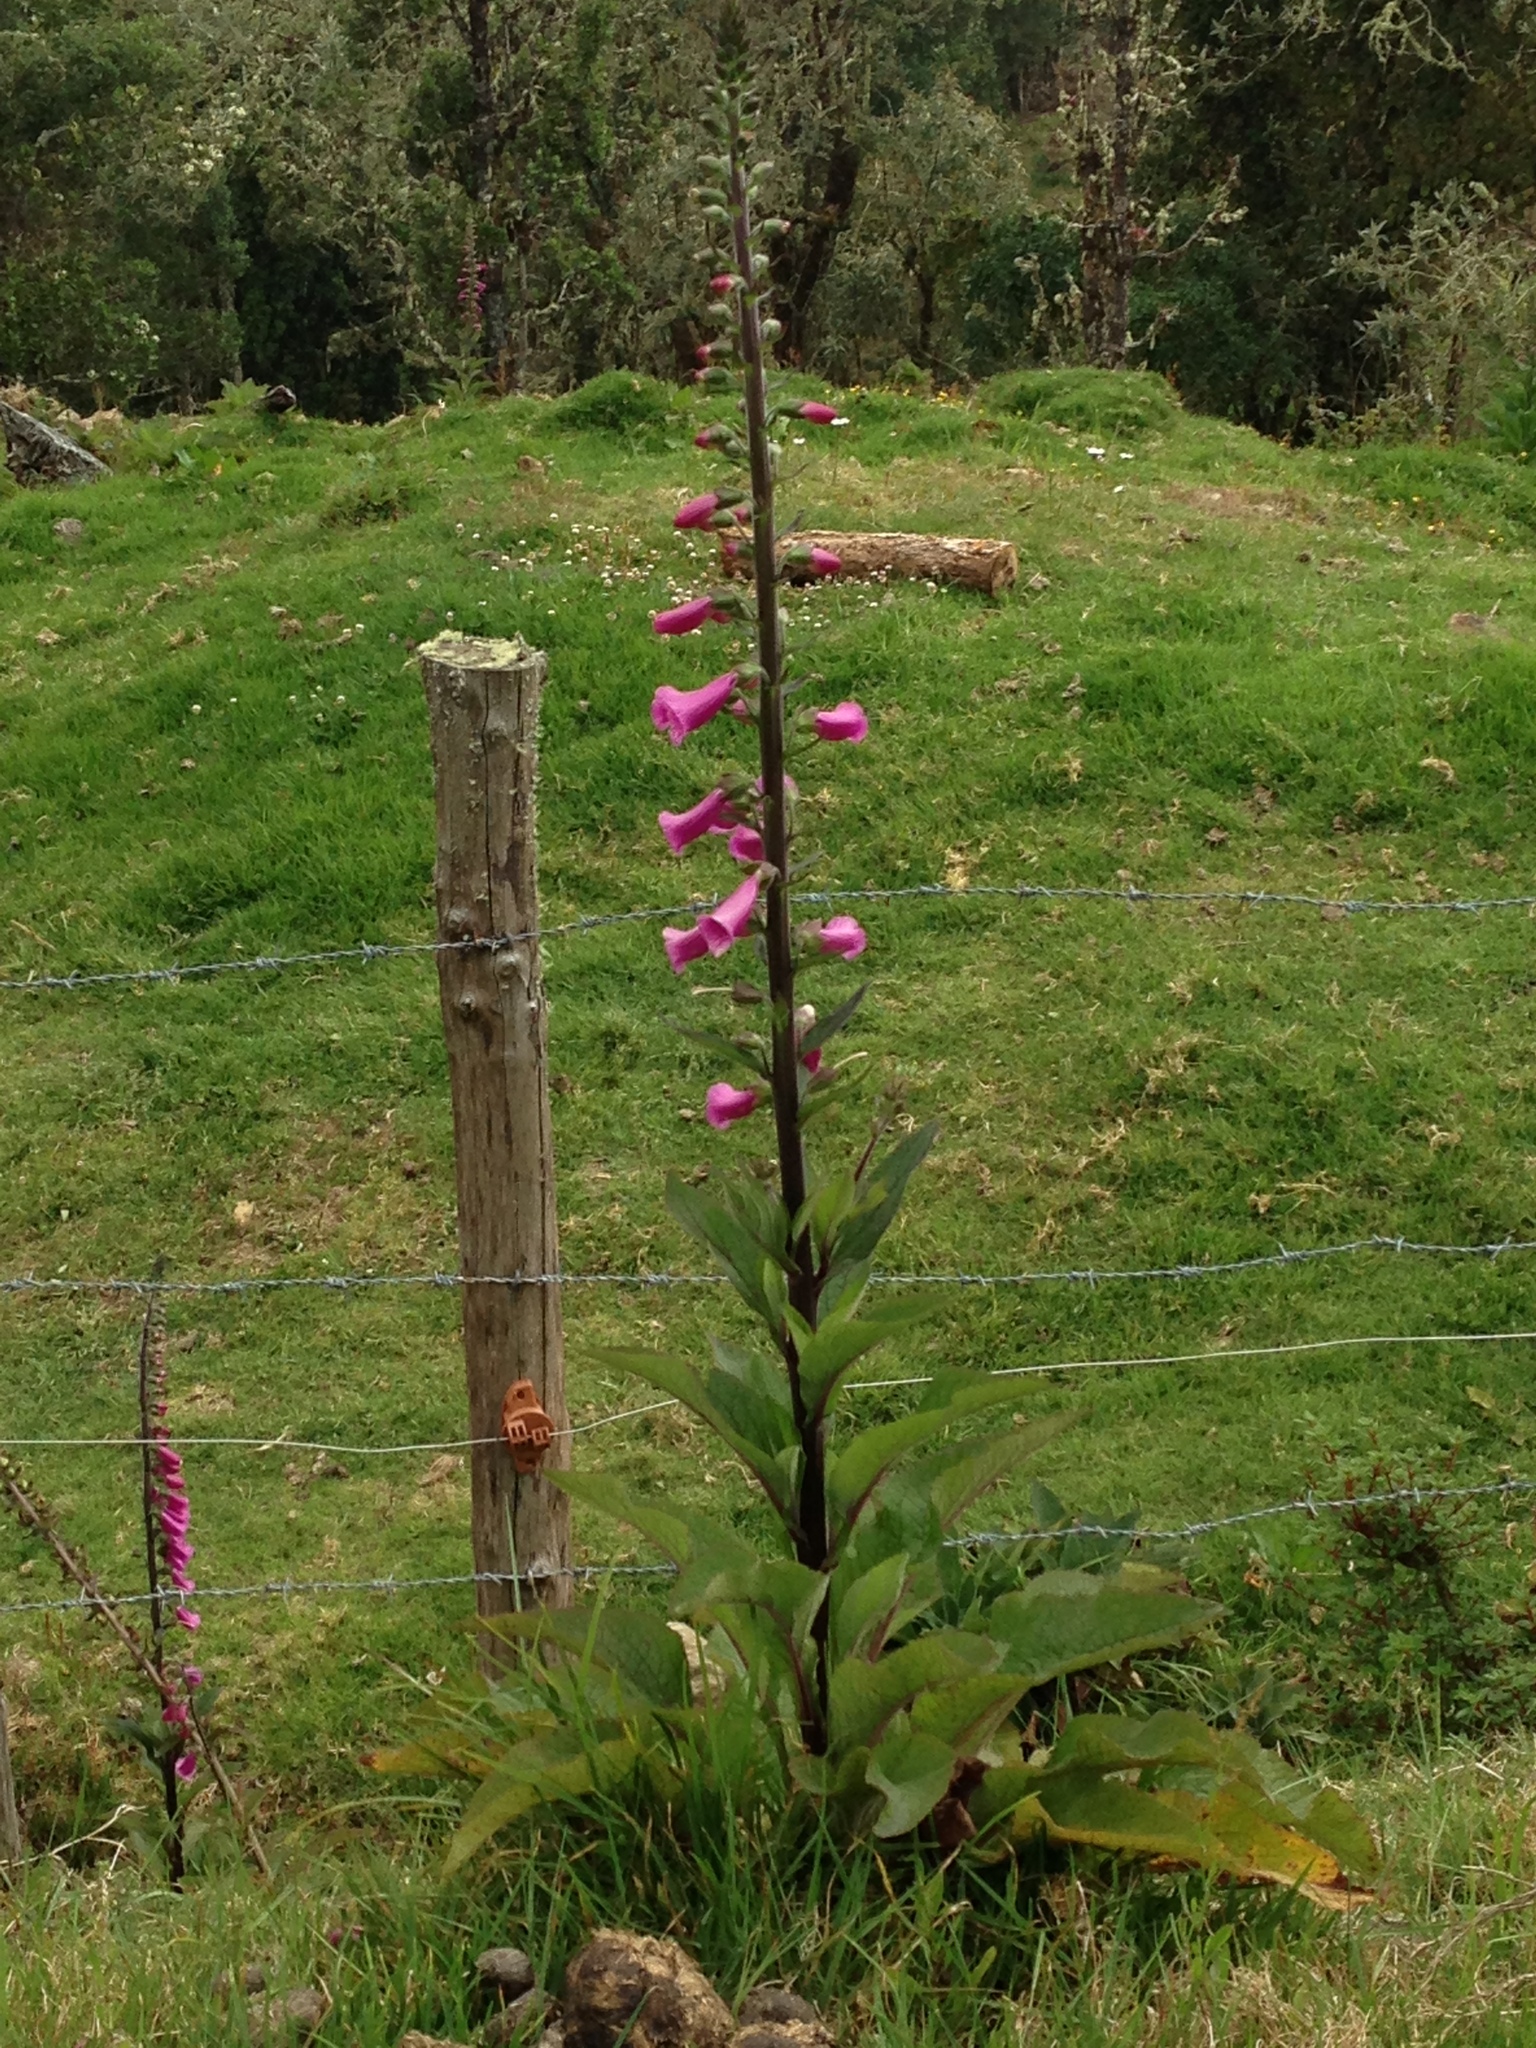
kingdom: Plantae
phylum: Tracheophyta
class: Magnoliopsida
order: Lamiales
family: Plantaginaceae
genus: Digitalis
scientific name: Digitalis purpurea
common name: Foxglove
